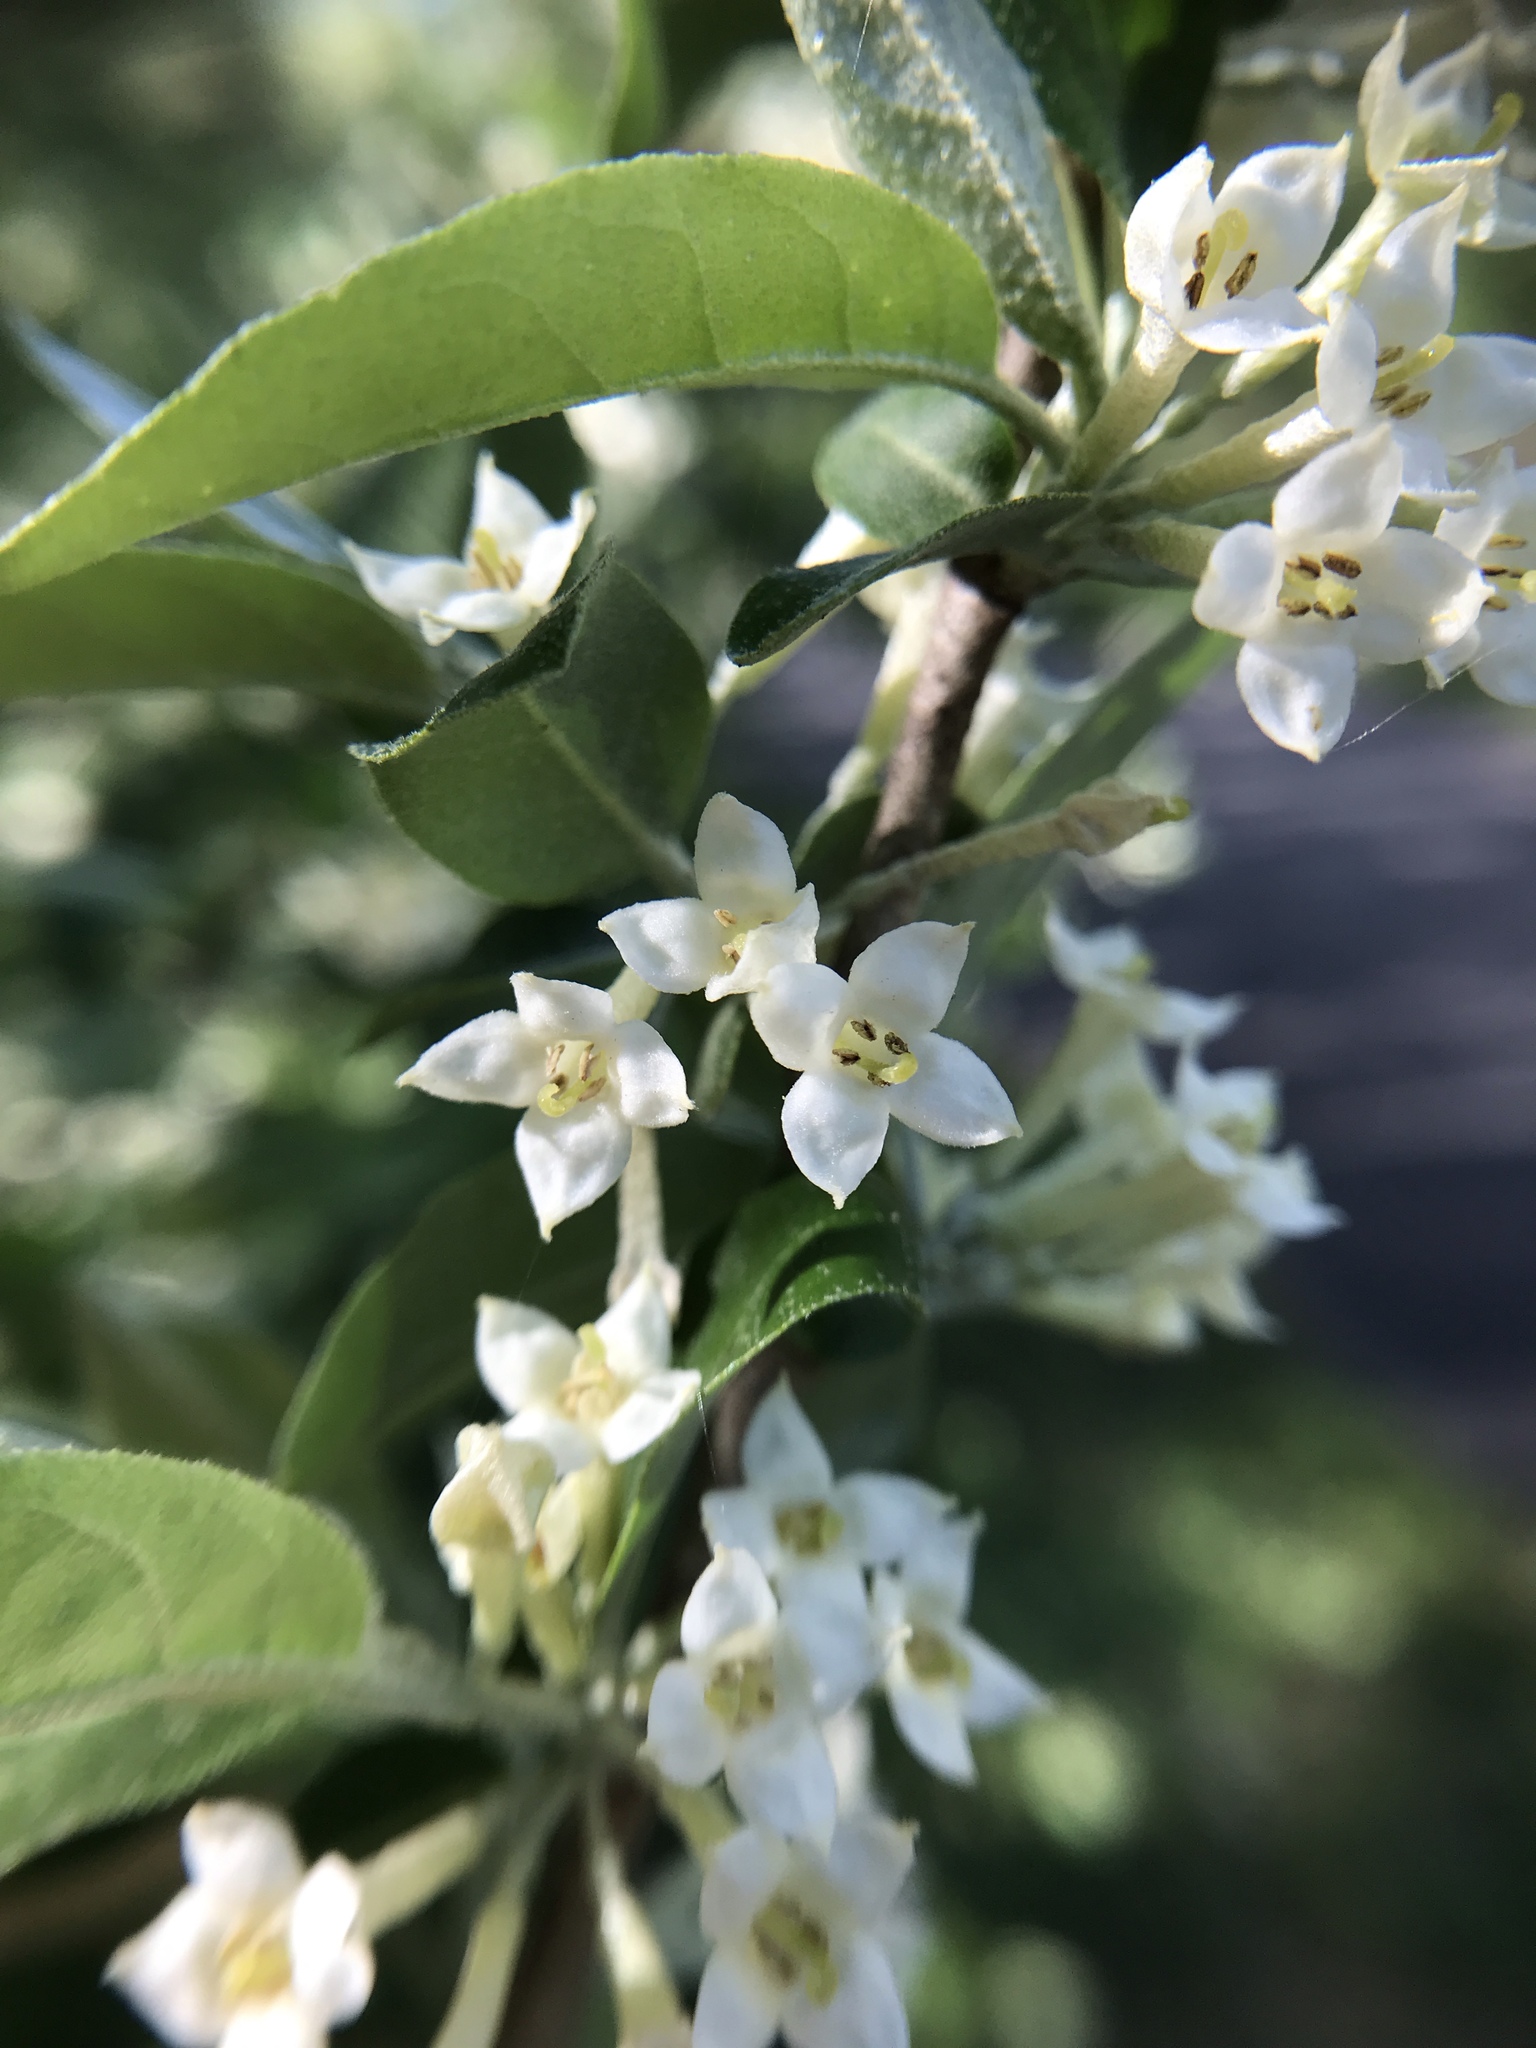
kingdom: Plantae
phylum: Tracheophyta
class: Magnoliopsida
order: Rosales
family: Elaeagnaceae
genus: Elaeagnus
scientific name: Elaeagnus umbellata
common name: Autumn olive
